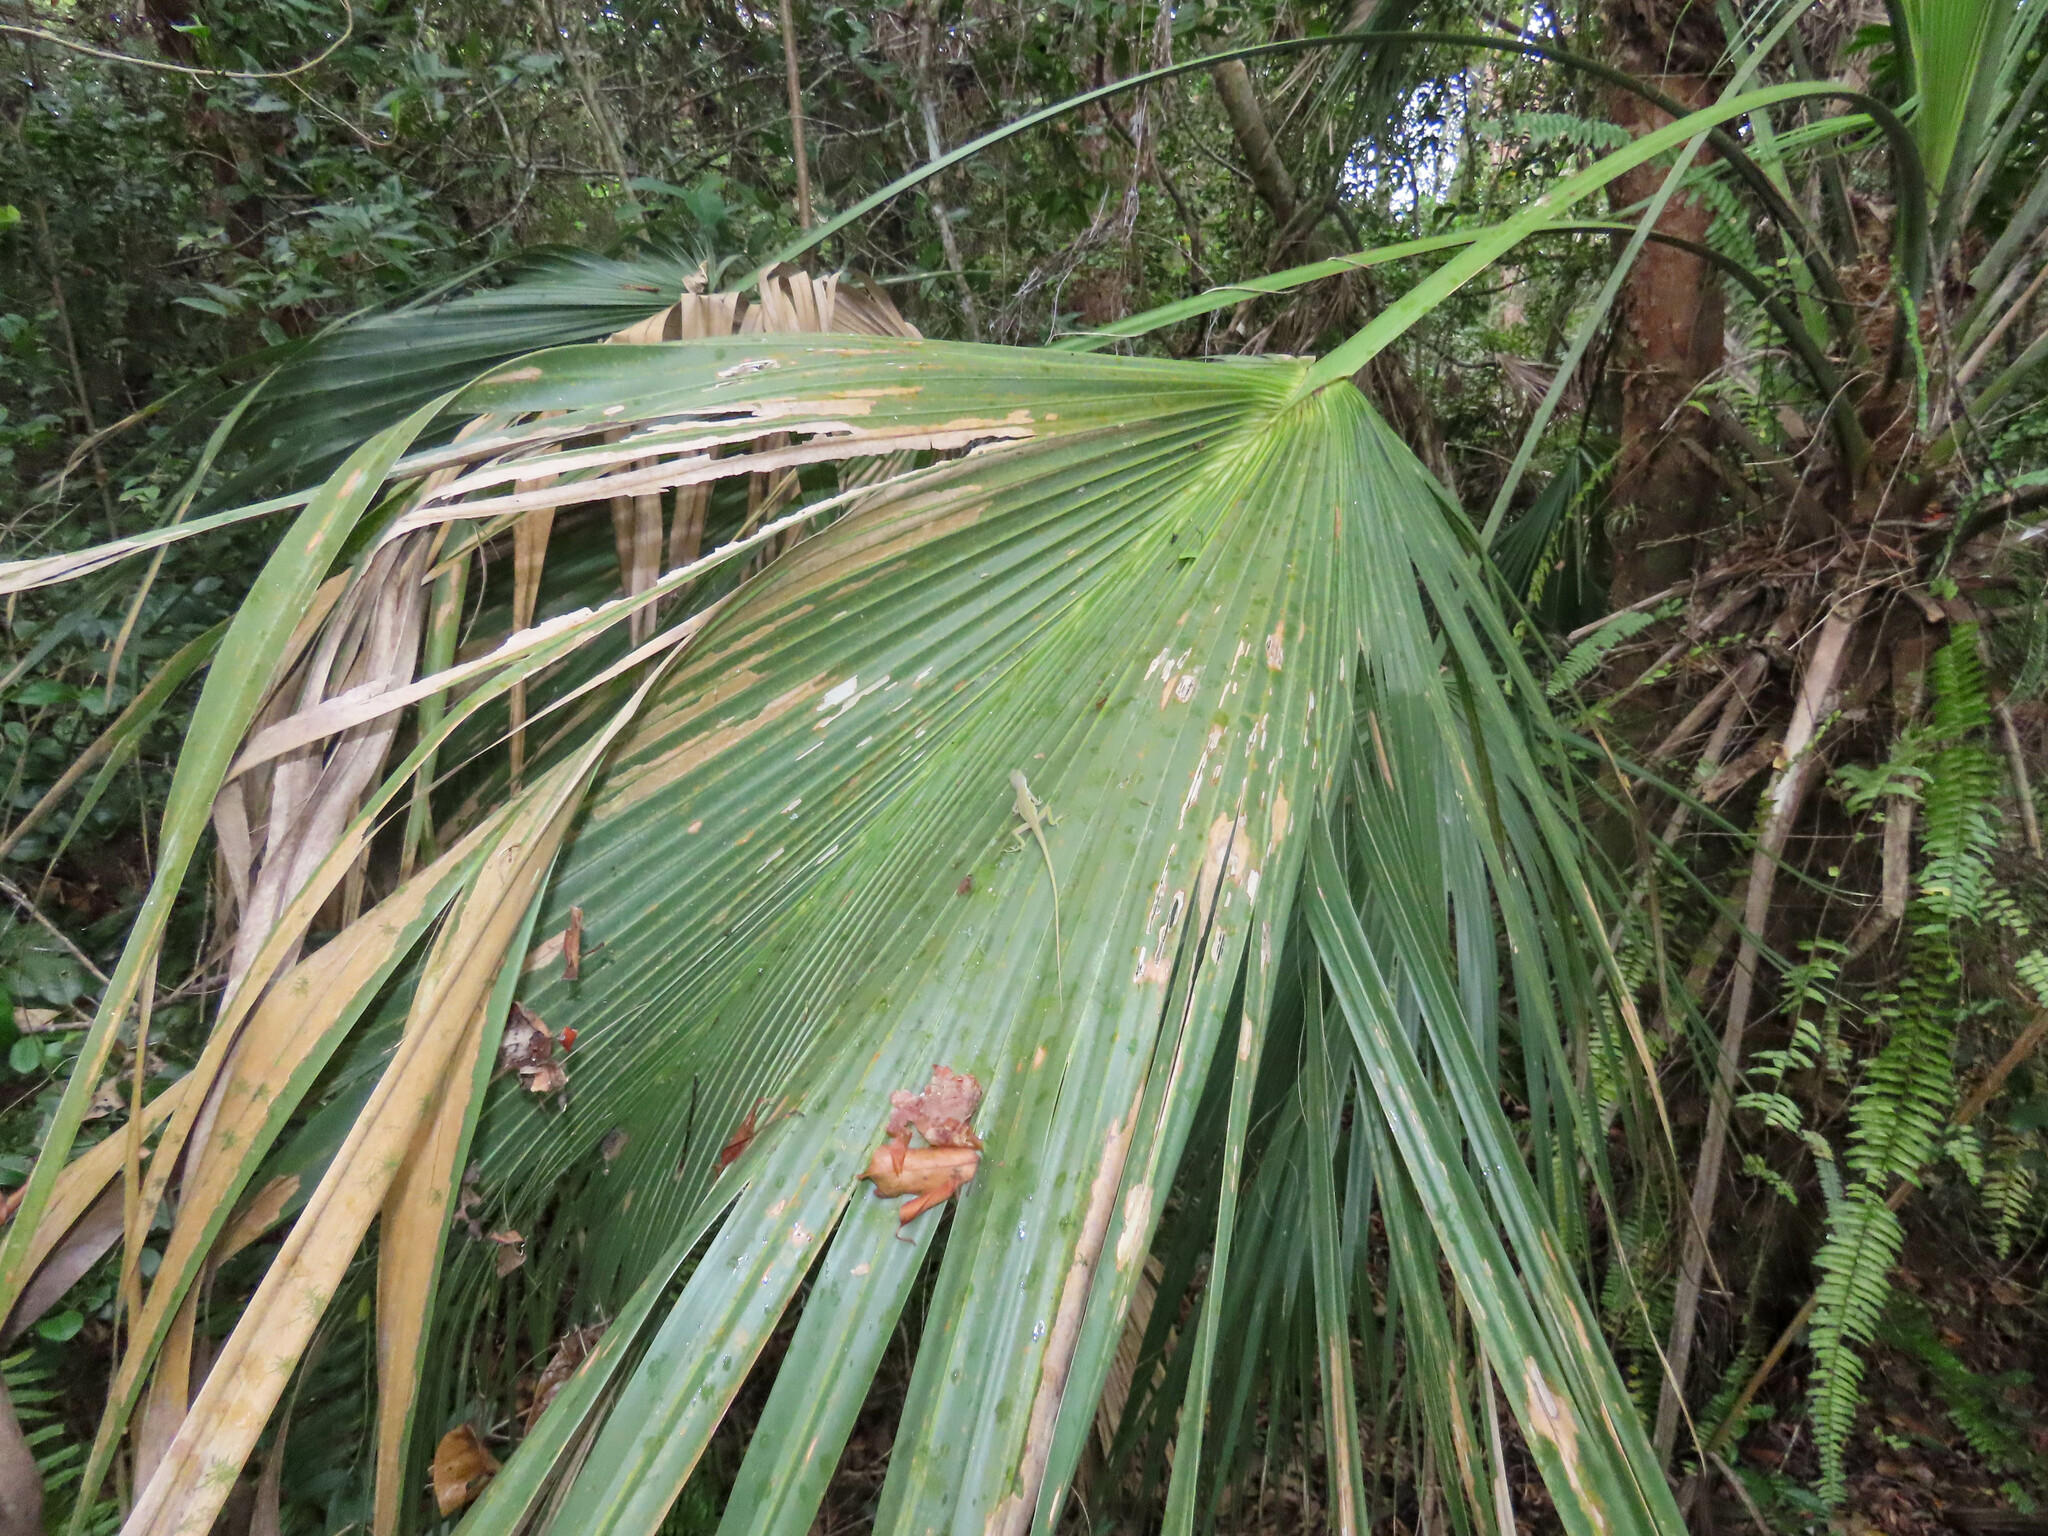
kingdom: Animalia
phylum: Chordata
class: Squamata
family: Dactyloidae
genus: Anolis
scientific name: Anolis carolinensis
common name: Green anole
